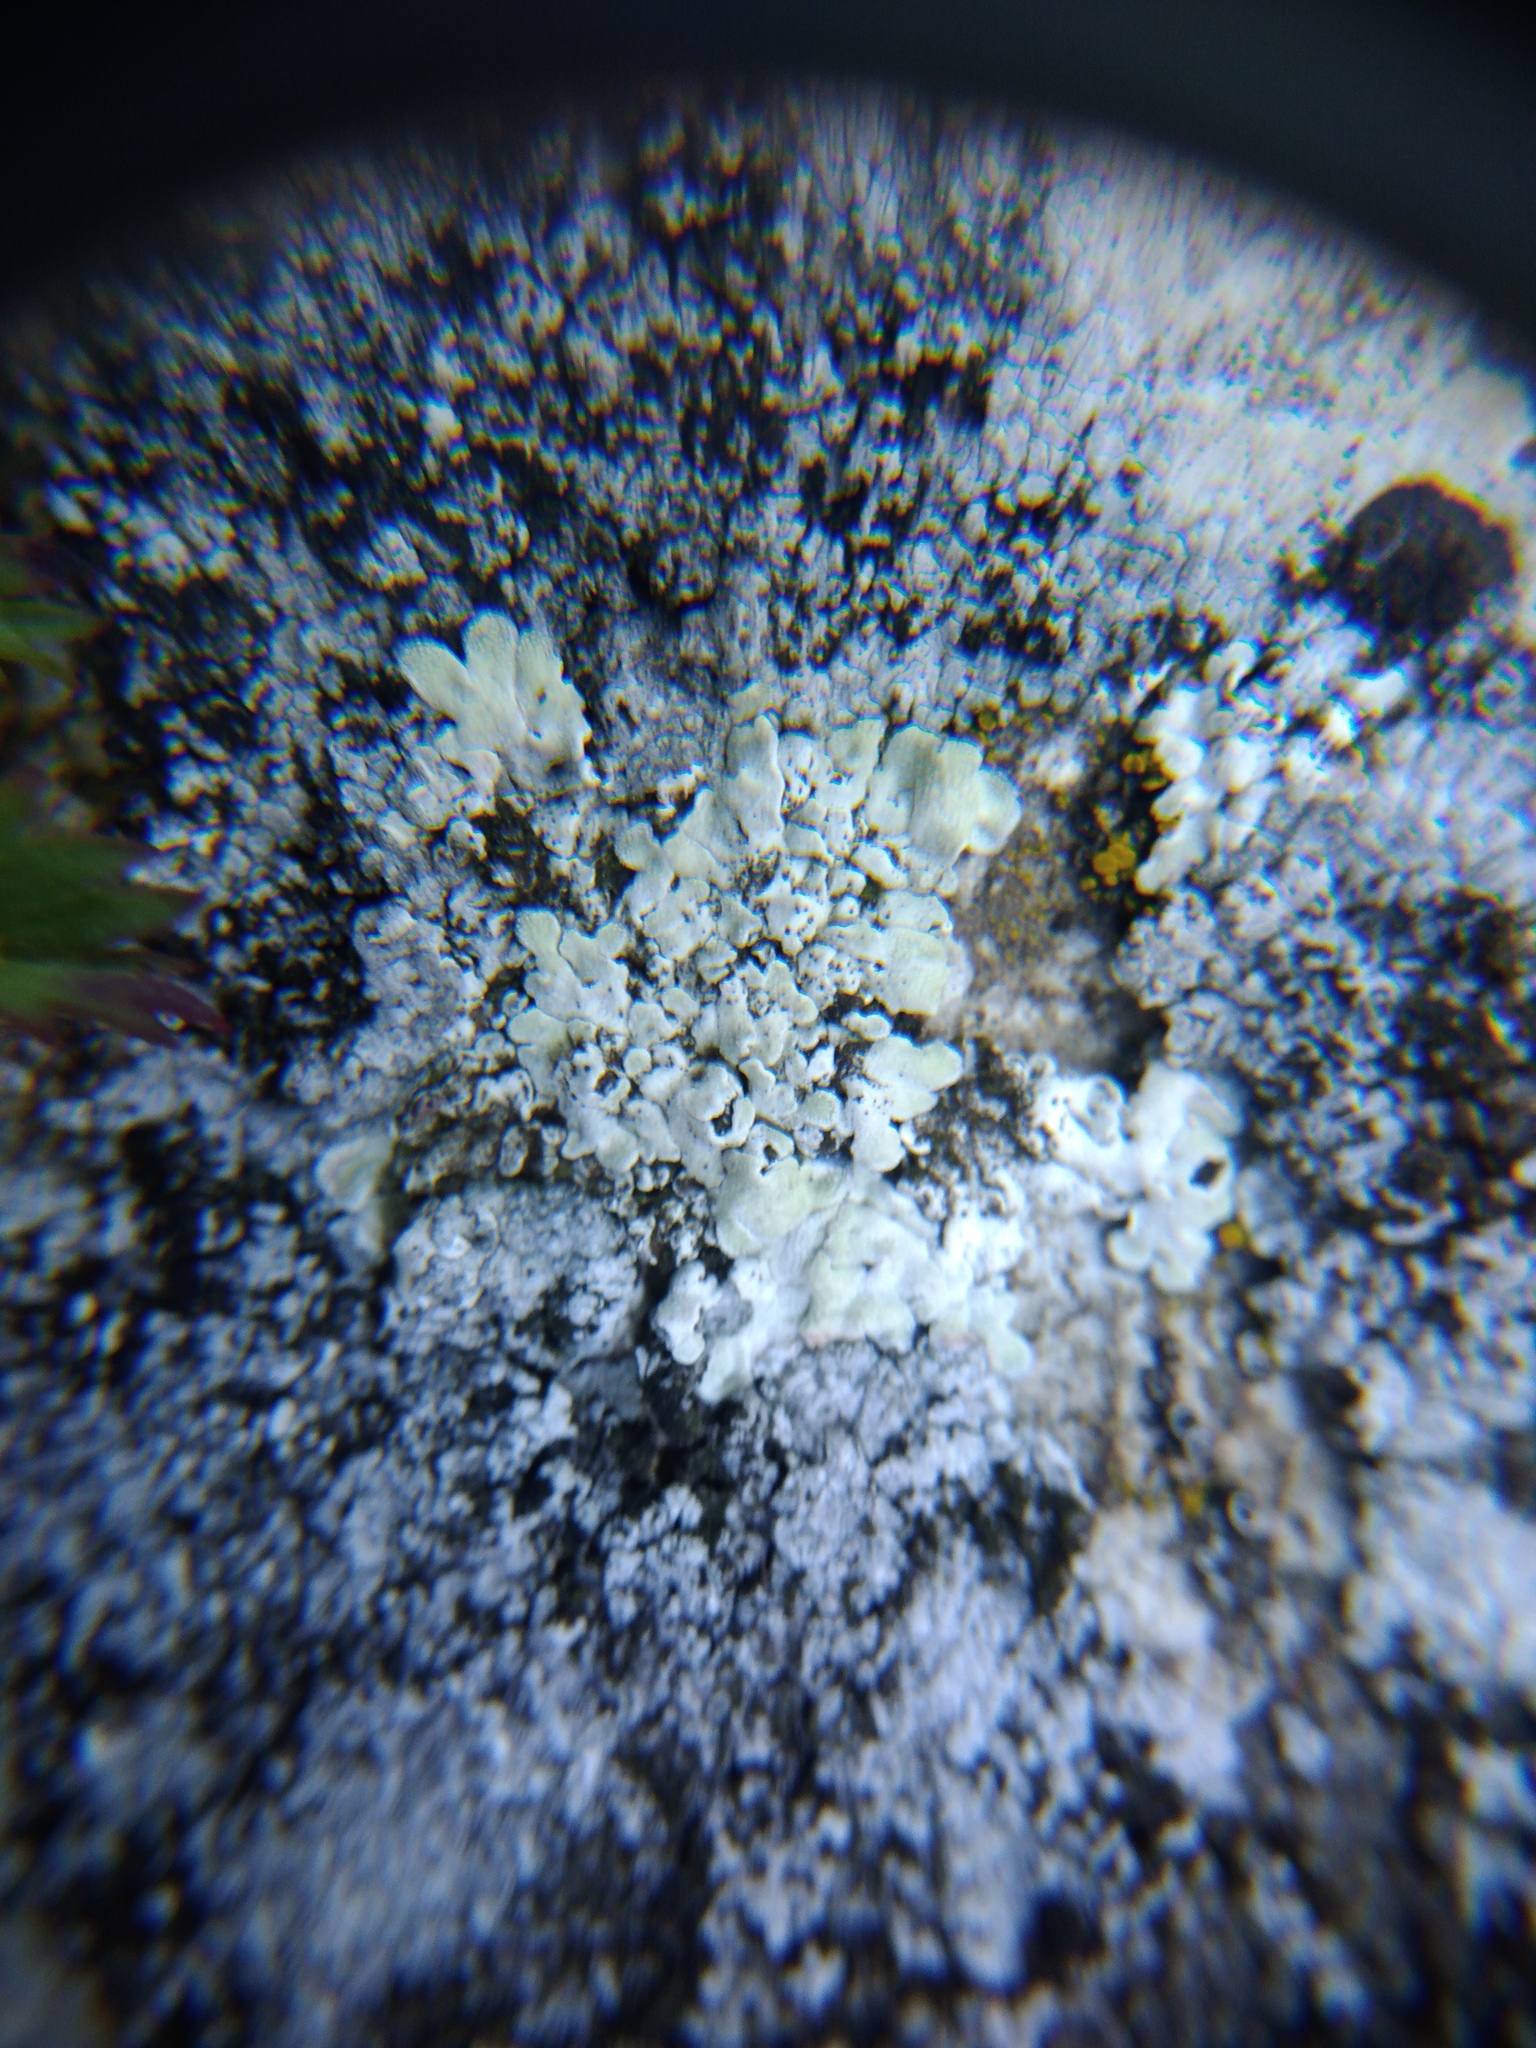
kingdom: Fungi
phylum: Ascomycota
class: Lecanoromycetes
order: Lecanorales
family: Lecanoraceae
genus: Protoparmeliopsis
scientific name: Protoparmeliopsis muralis
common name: Stonewall rim lichen
